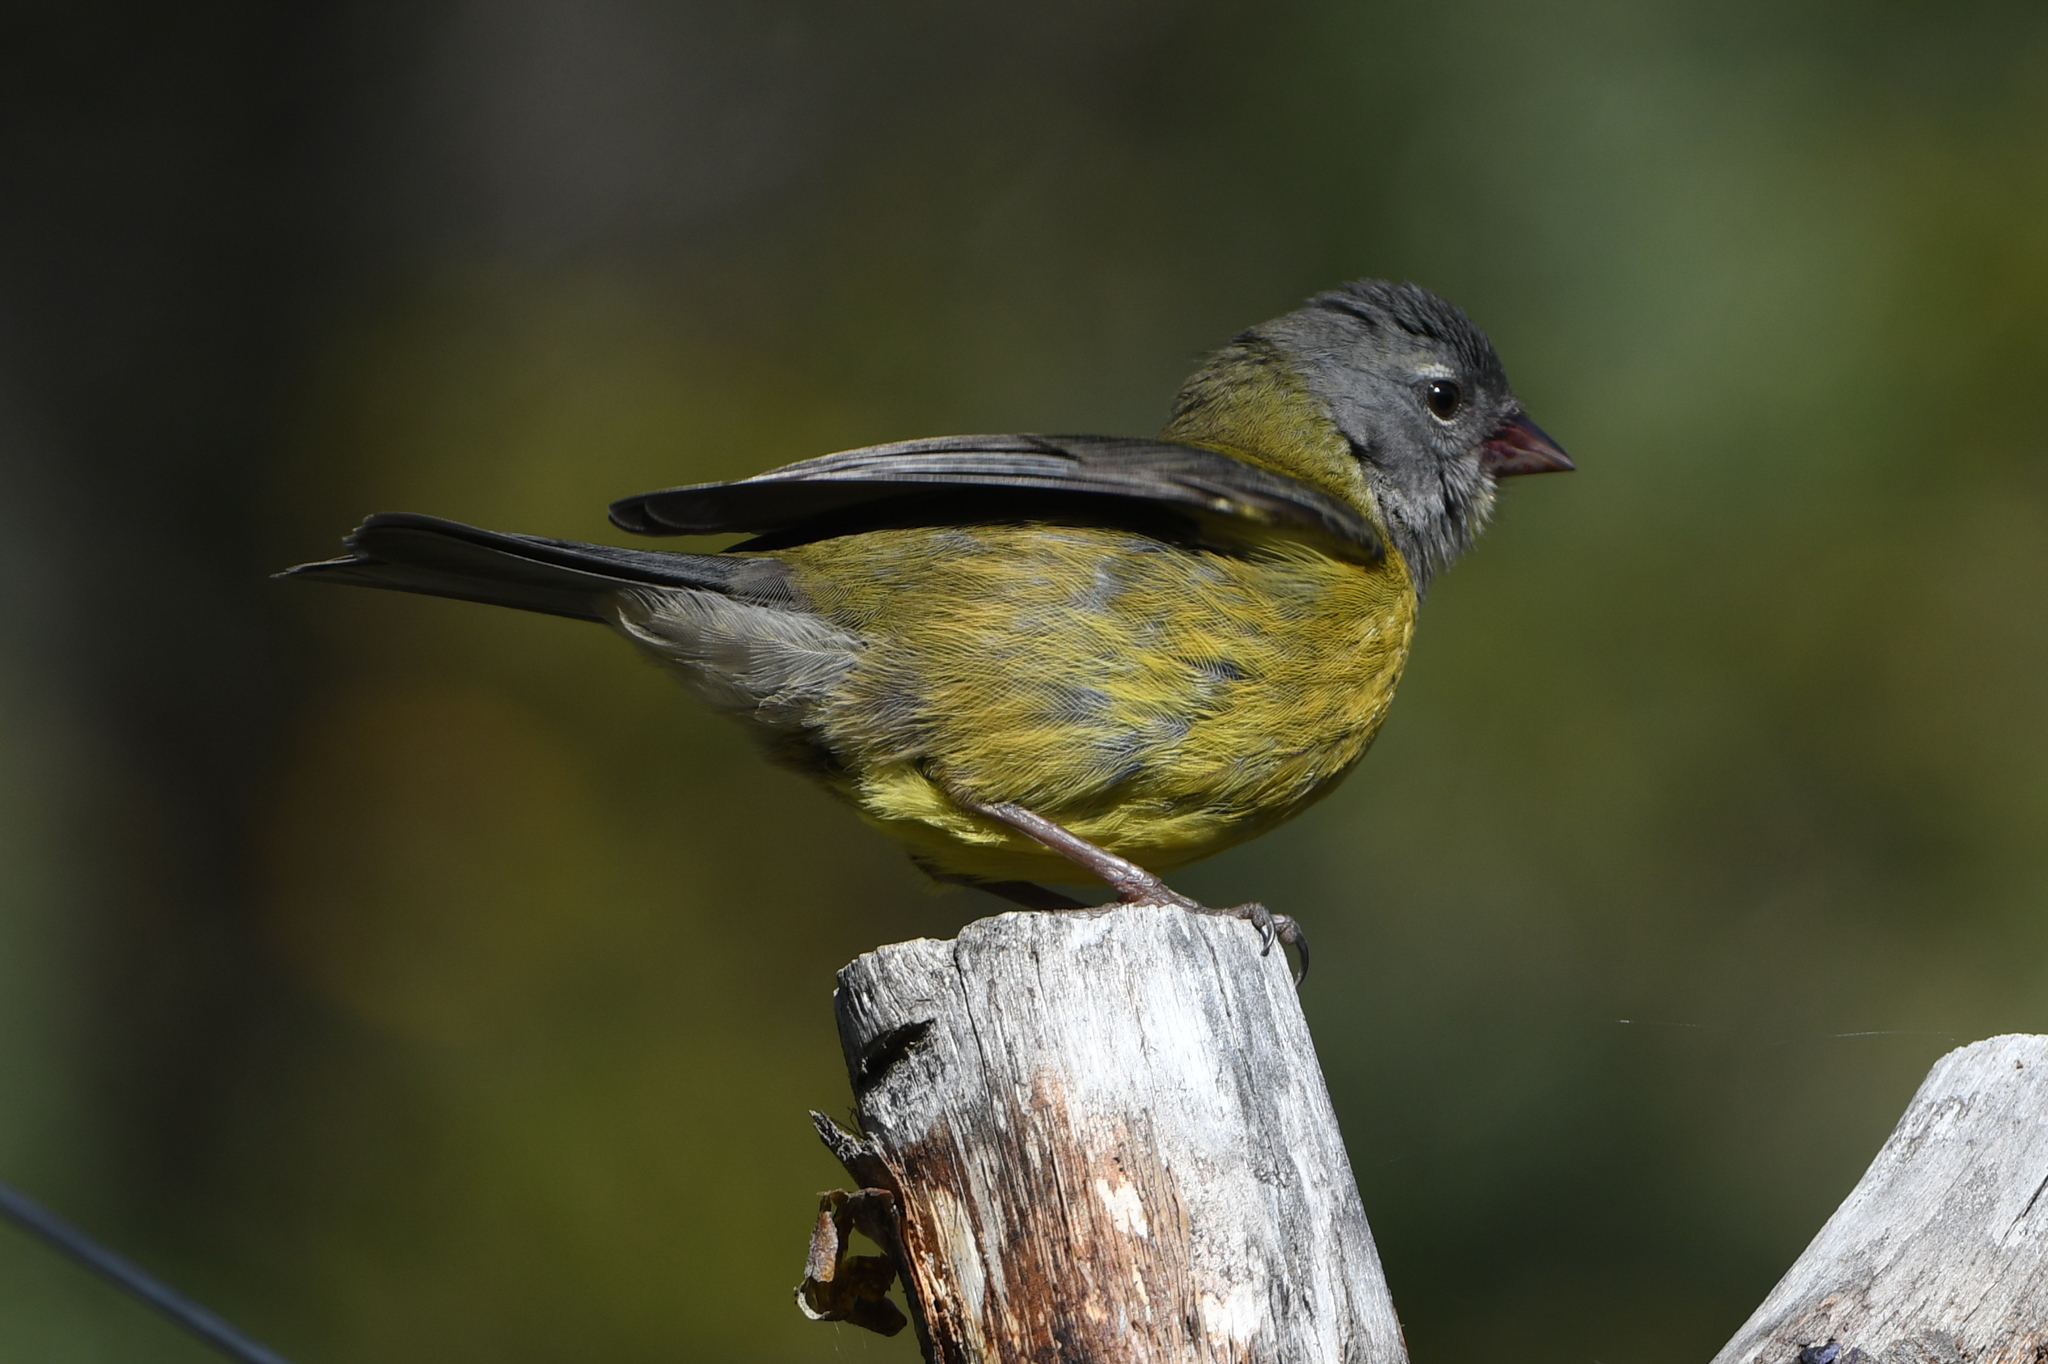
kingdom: Animalia
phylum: Chordata
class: Aves
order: Passeriformes
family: Thraupidae
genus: Phrygilus
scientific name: Phrygilus patagonicus
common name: Patagonian sierra finch
